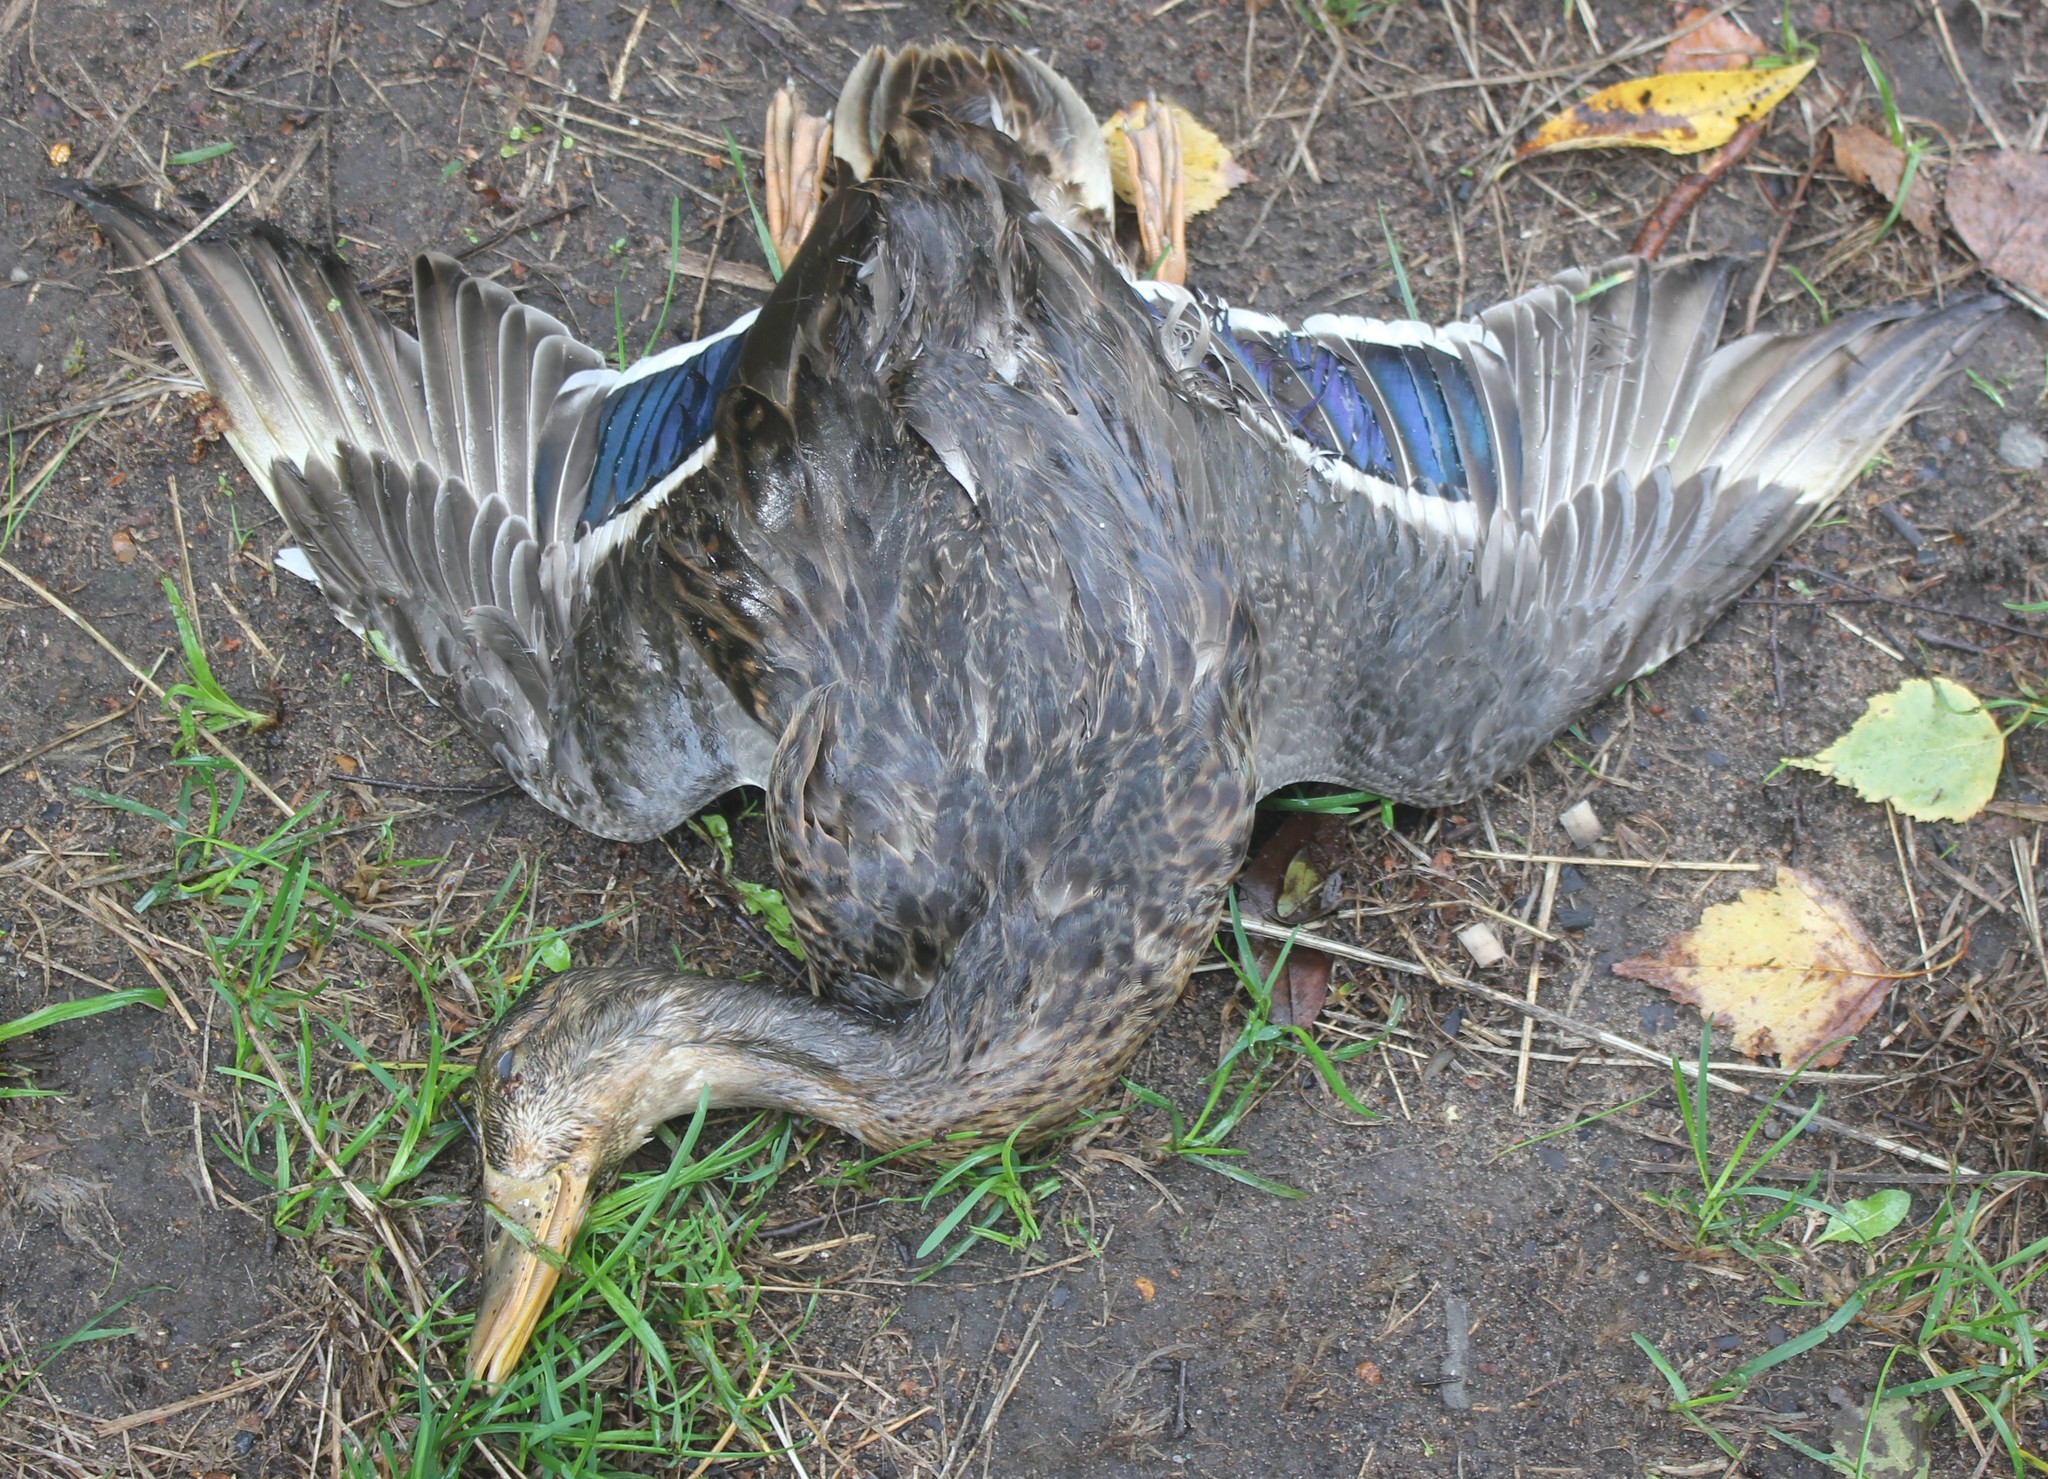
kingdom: Animalia
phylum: Chordata
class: Aves
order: Anseriformes
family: Anatidae
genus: Anas
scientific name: Anas platyrhynchos
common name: Mallard
